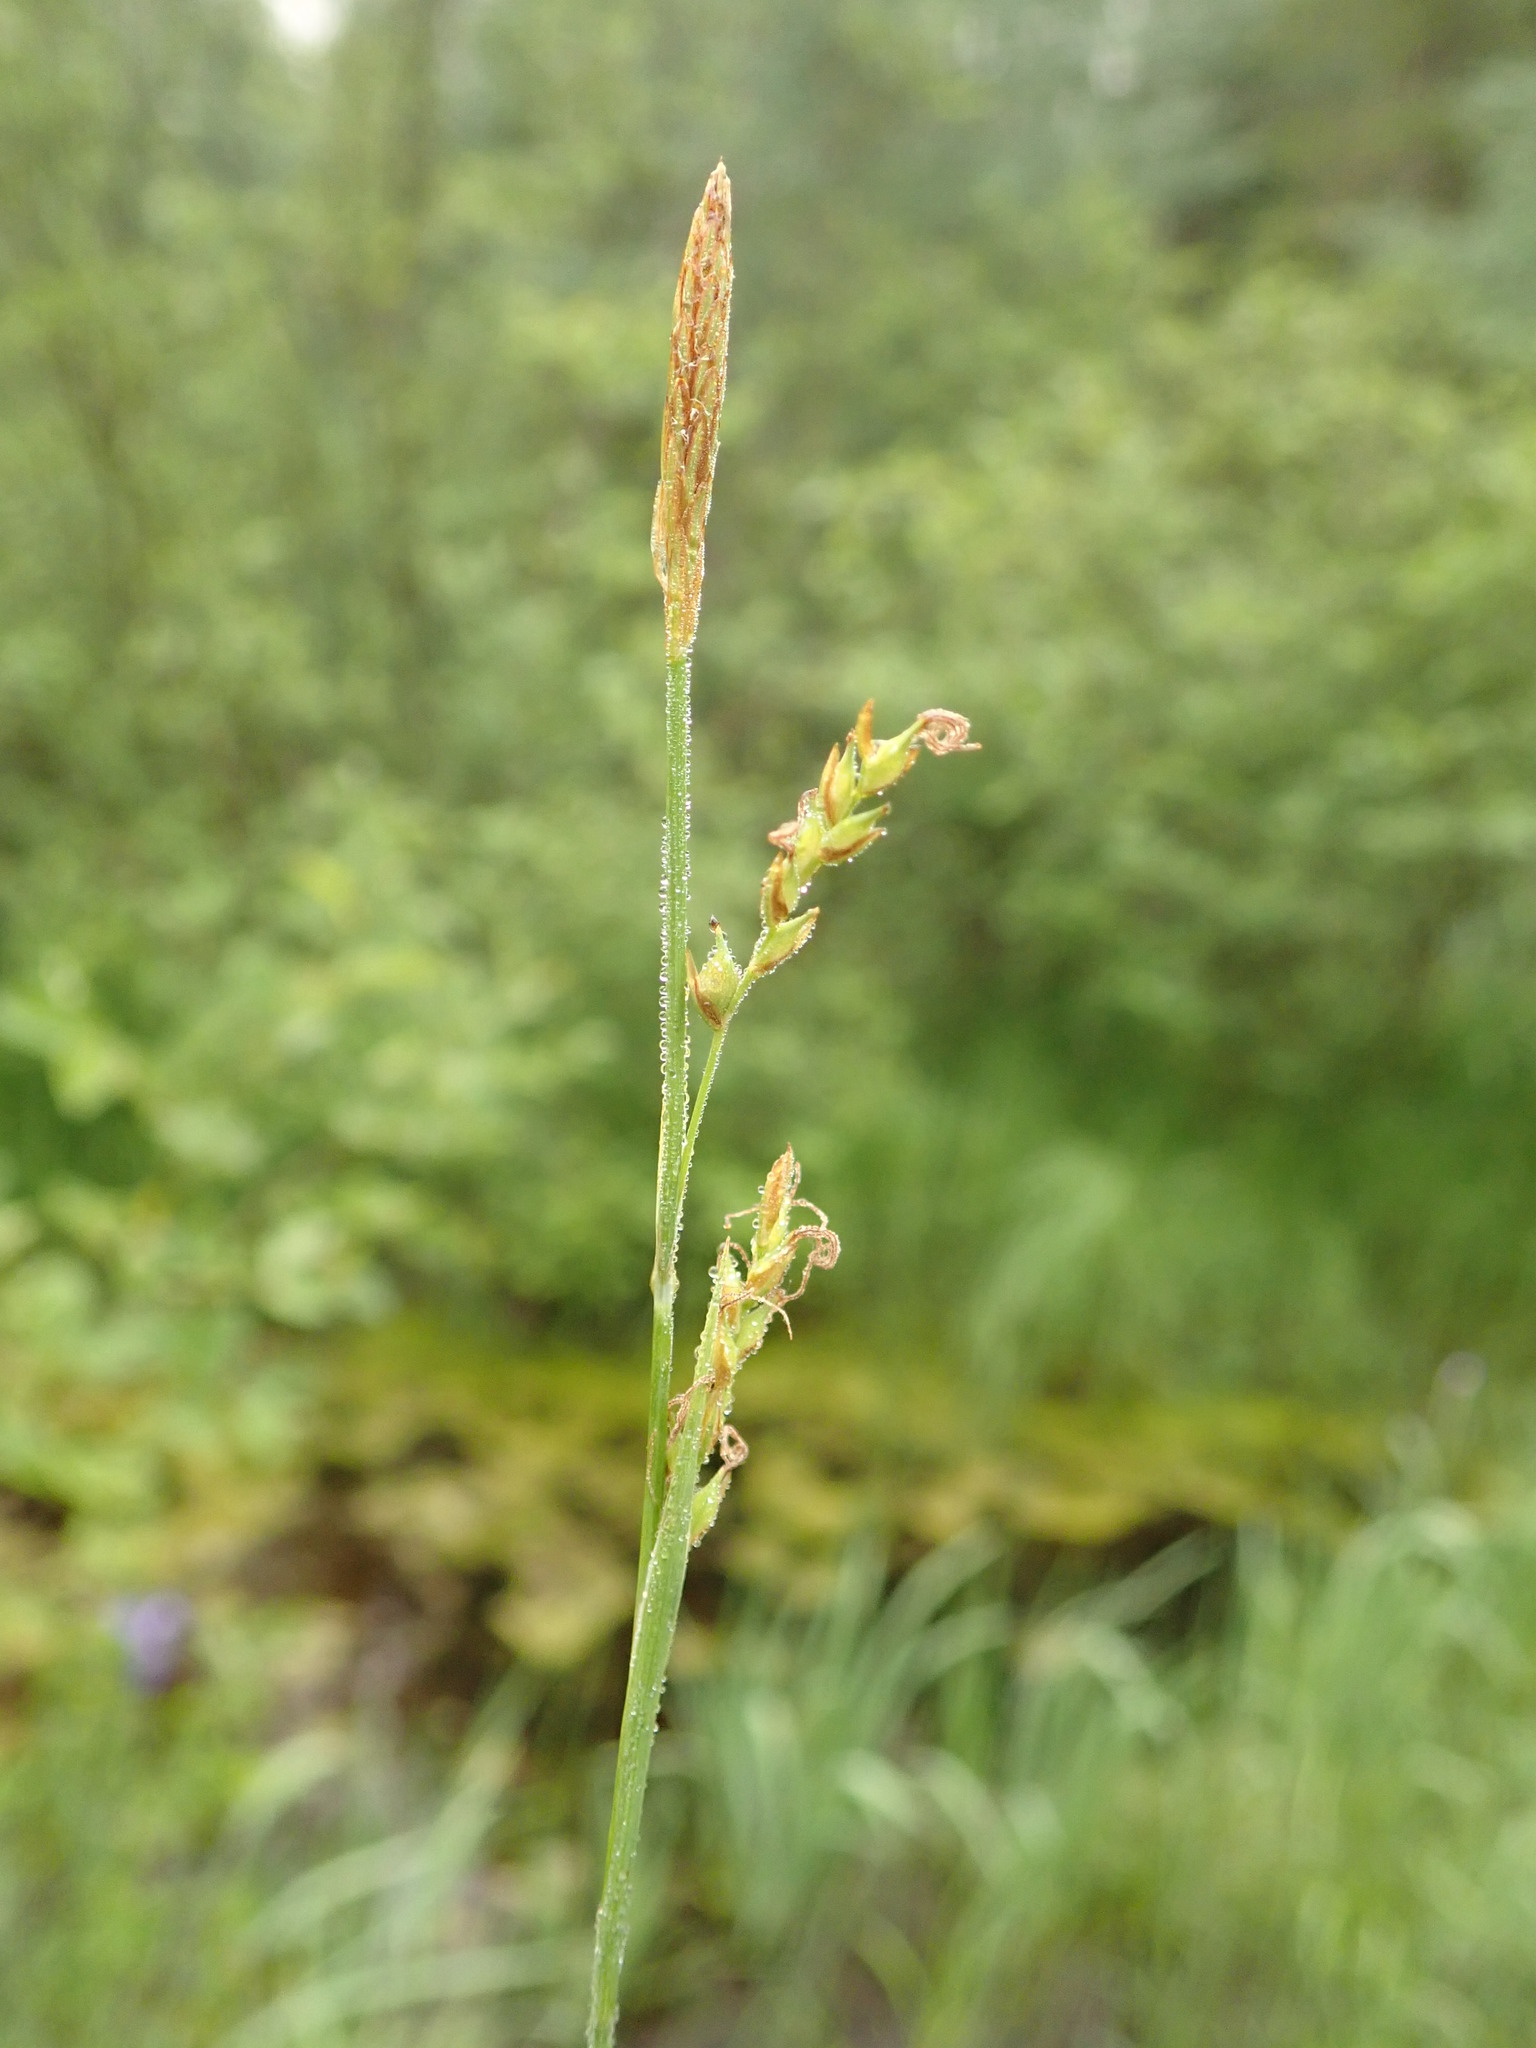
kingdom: Plantae
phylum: Tracheophyta
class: Liliopsida
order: Poales
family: Cyperaceae
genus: Carex
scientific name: Carex vaginata
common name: Sheathed sedge
